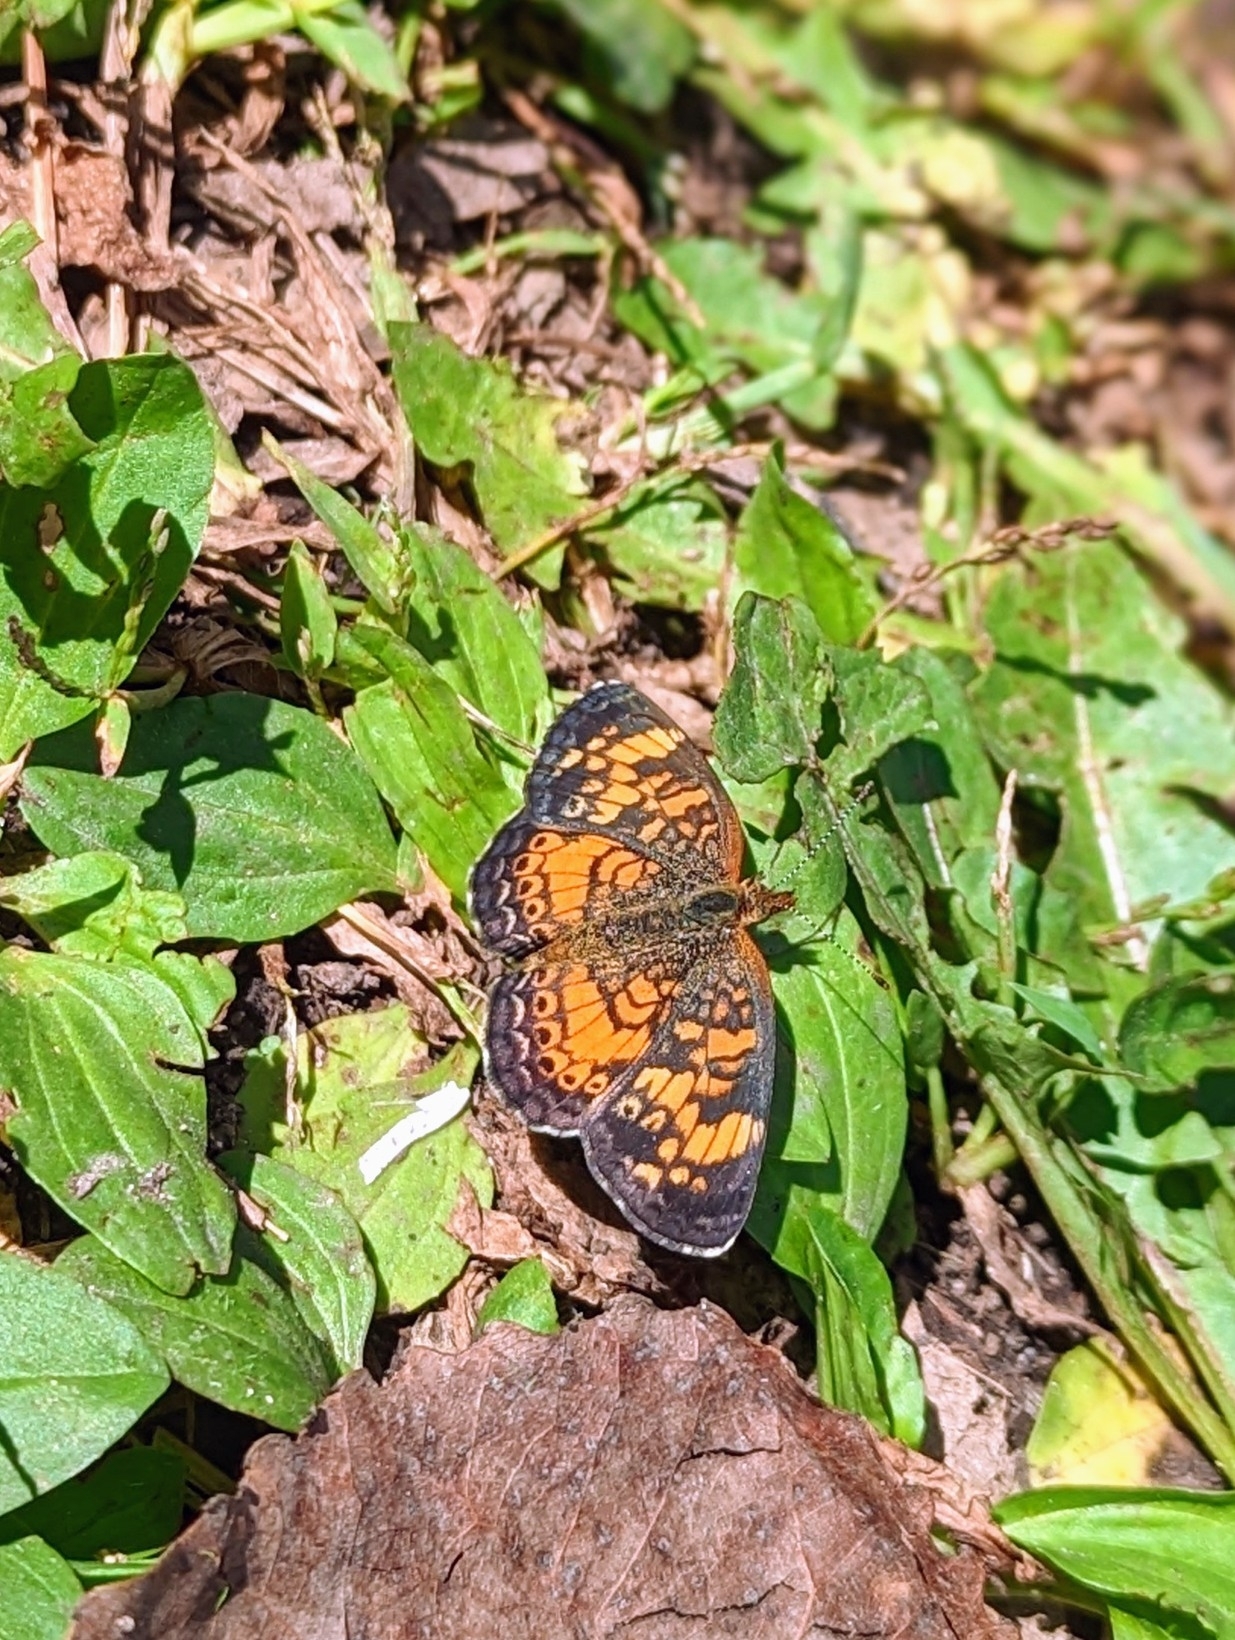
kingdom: Animalia
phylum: Arthropoda
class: Insecta
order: Lepidoptera
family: Nymphalidae
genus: Phyciodes
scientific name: Phyciodes tharos
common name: Pearl crescent
